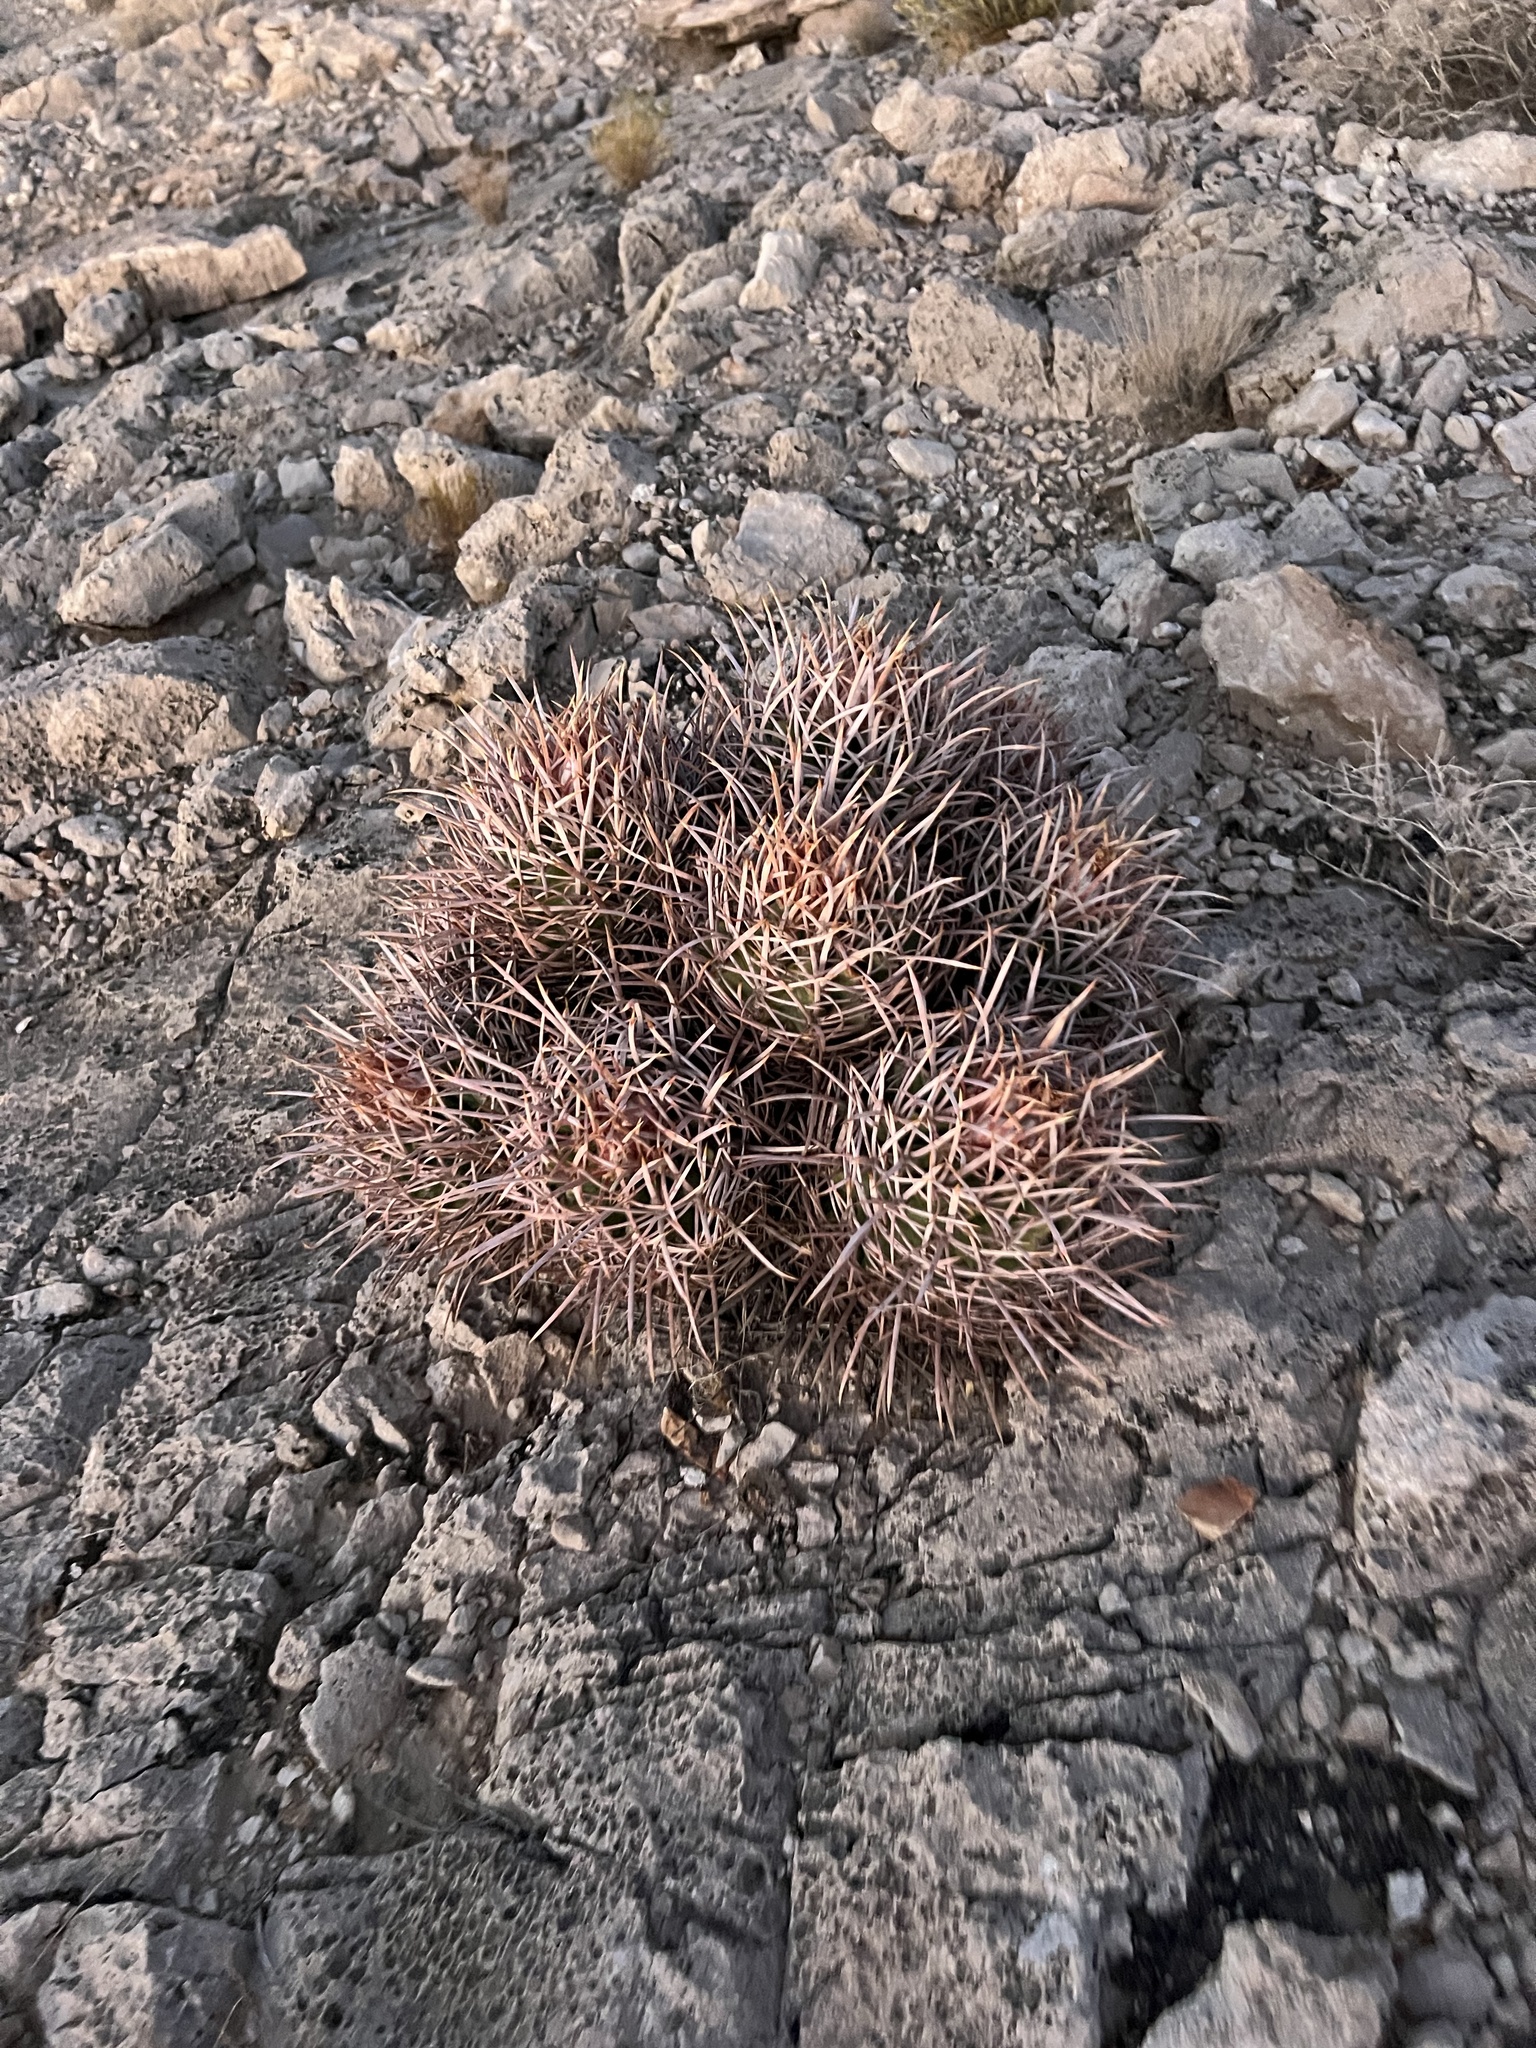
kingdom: Plantae
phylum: Tracheophyta
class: Magnoliopsida
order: Caryophyllales
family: Cactaceae
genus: Echinocactus
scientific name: Echinocactus polycephalus
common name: Cottontop cactus
